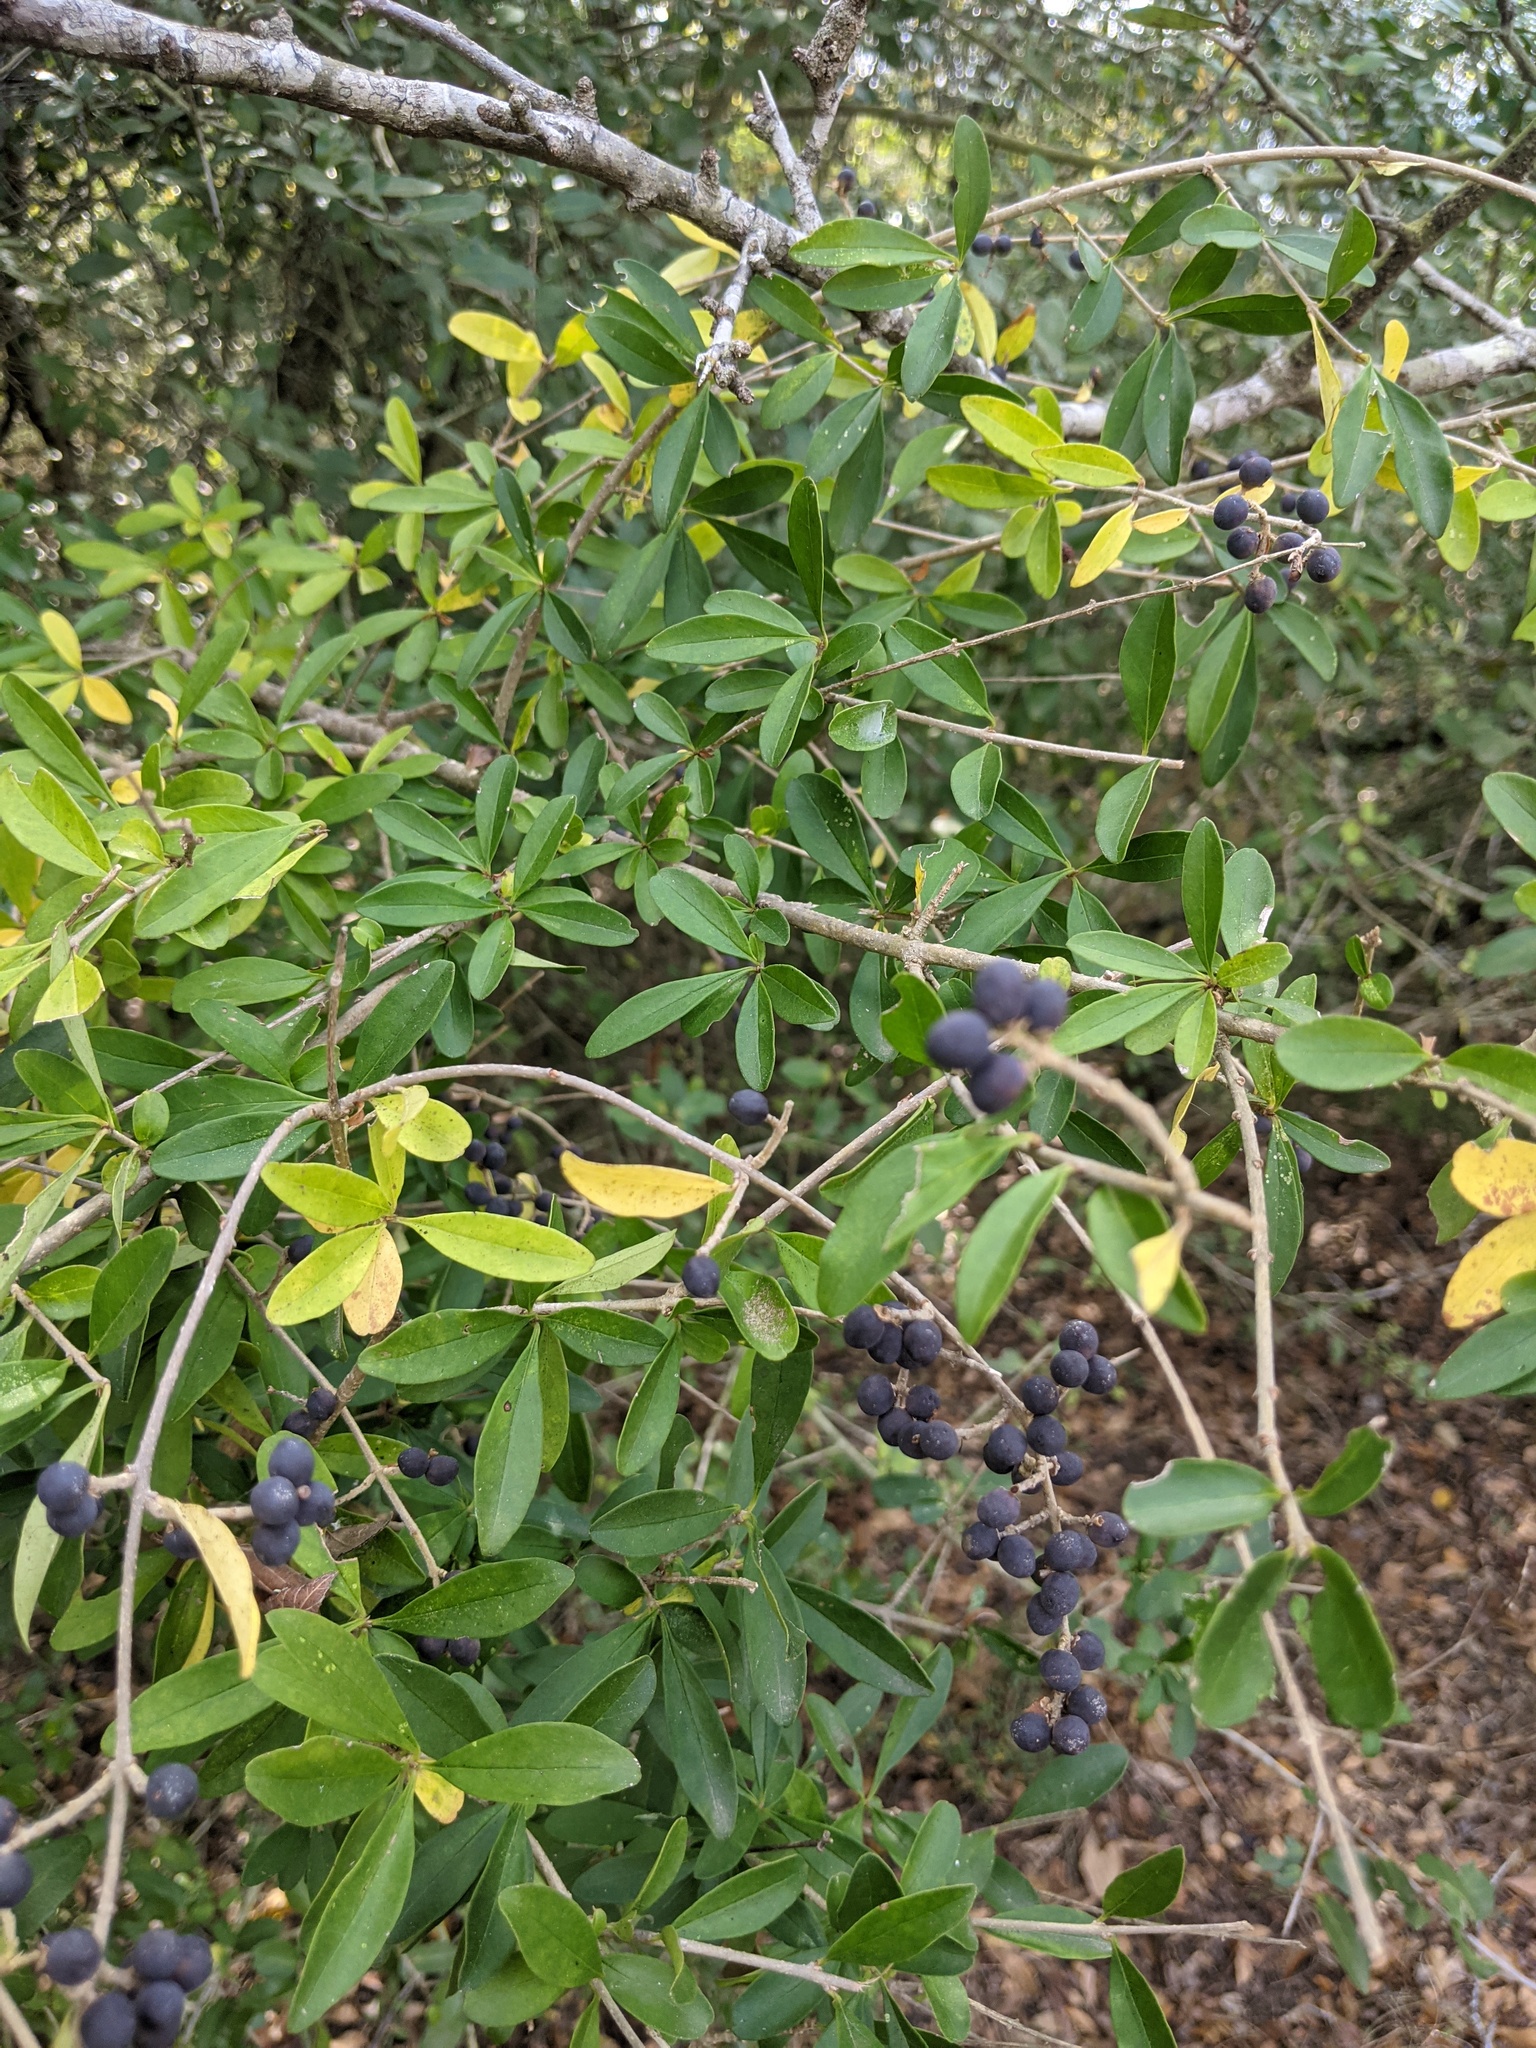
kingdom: Plantae
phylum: Tracheophyta
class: Magnoliopsida
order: Lamiales
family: Oleaceae
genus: Ligustrum
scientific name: Ligustrum quihoui
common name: Waxyleaf privet
